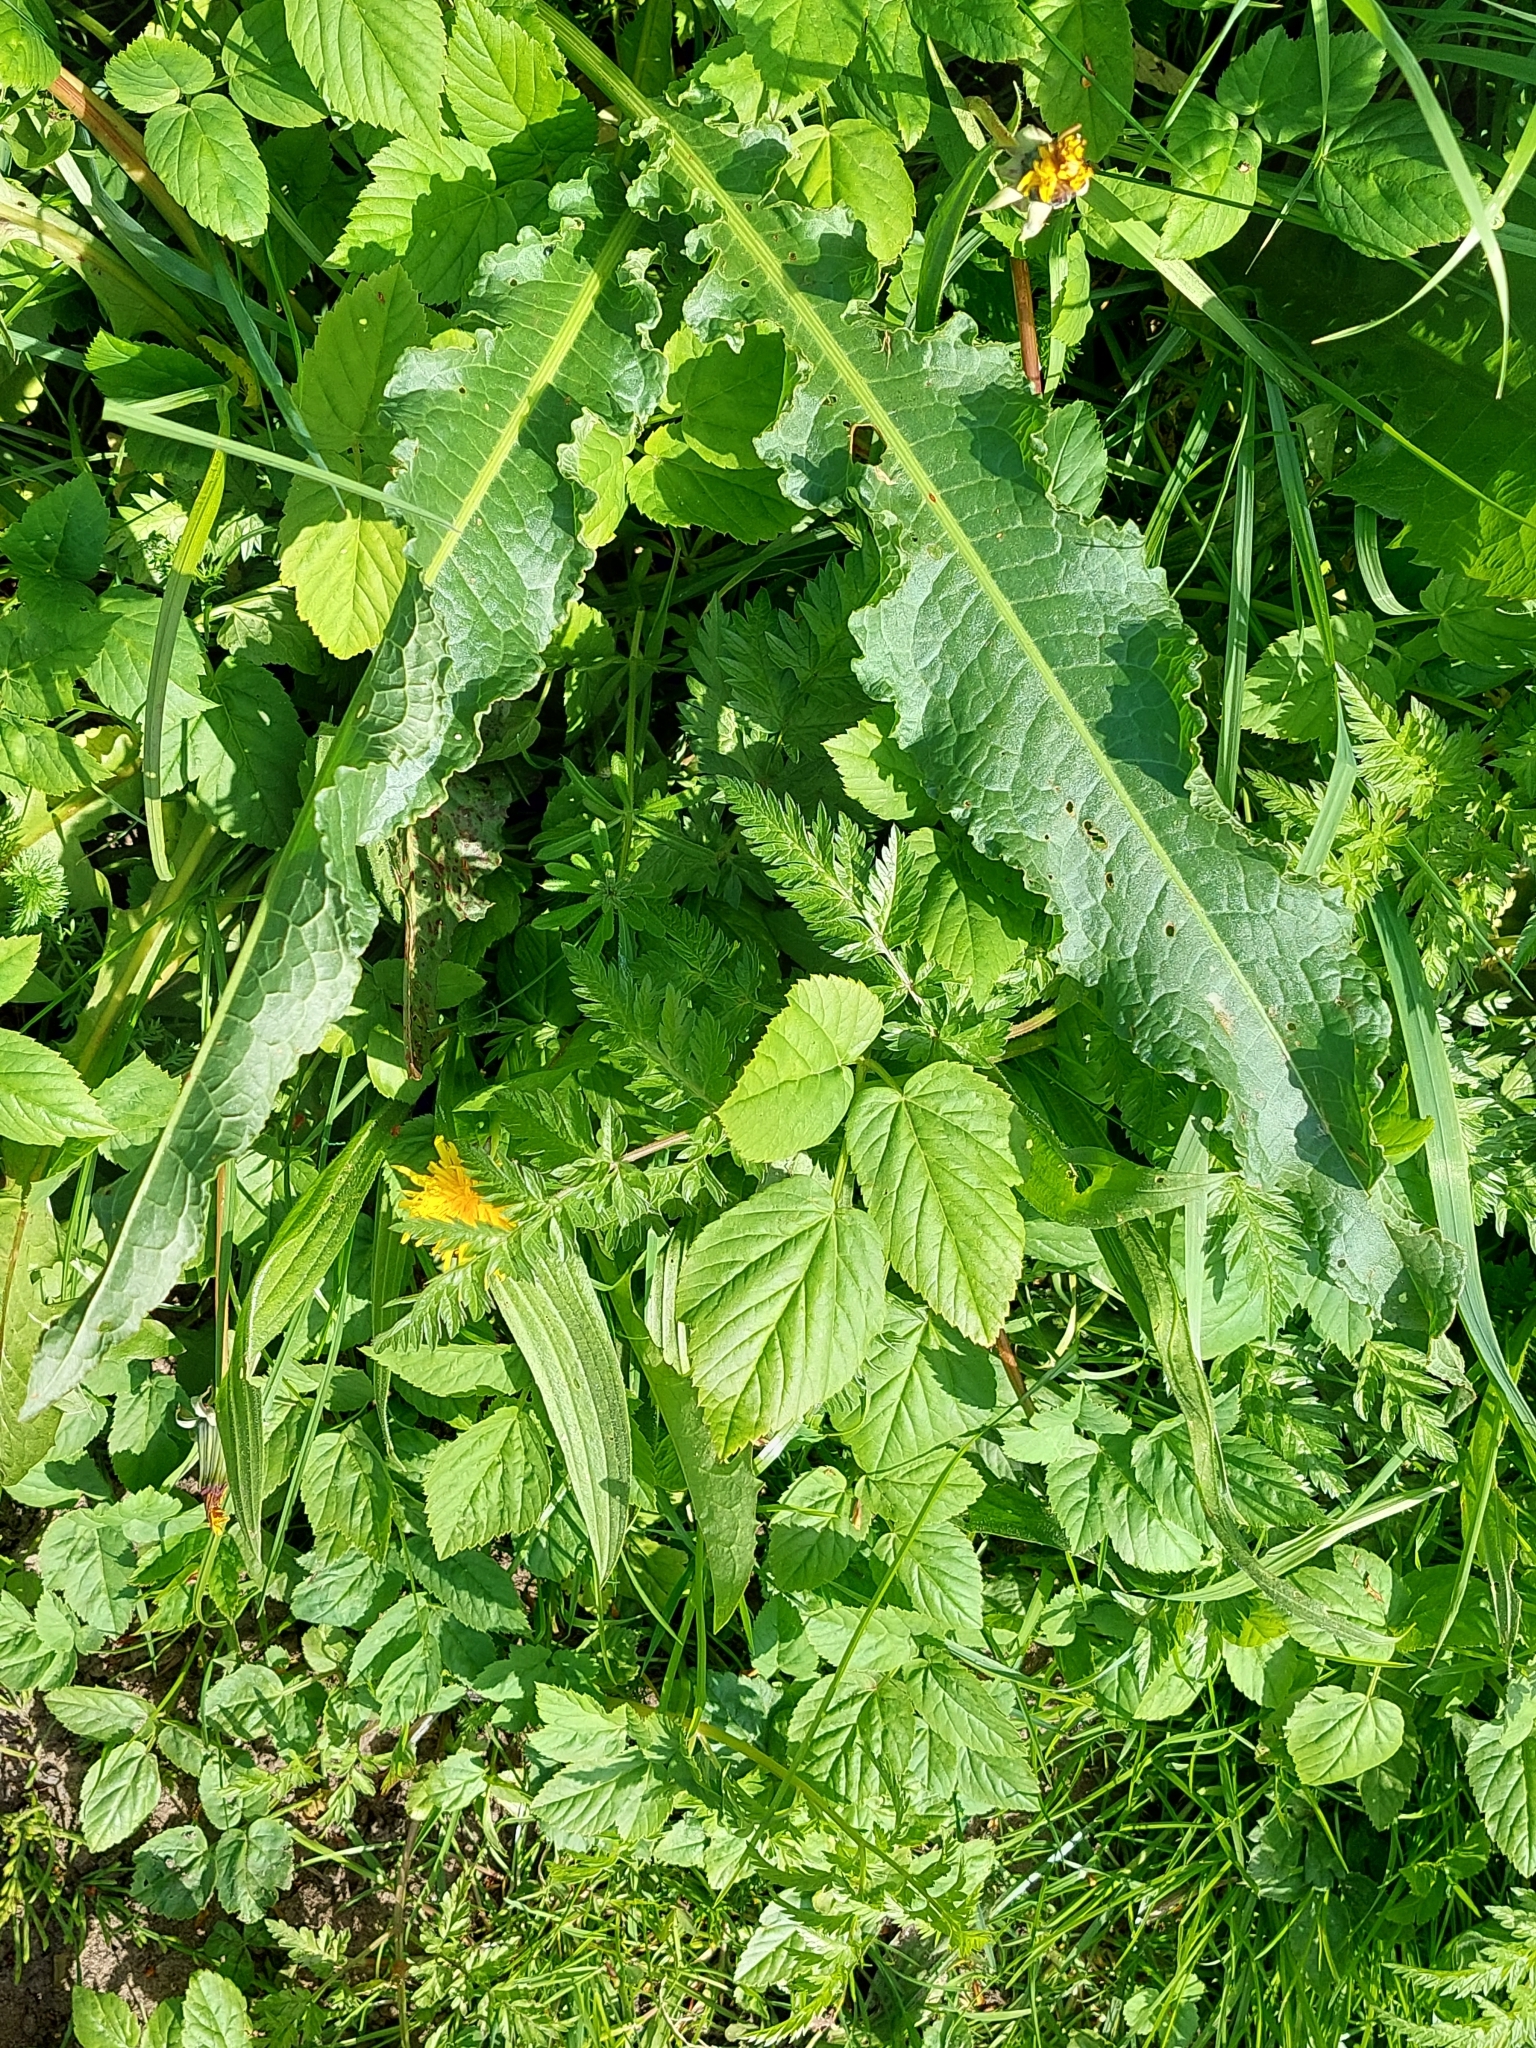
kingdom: Plantae
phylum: Tracheophyta
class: Magnoliopsida
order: Caryophyllales
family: Polygonaceae
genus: Rumex
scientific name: Rumex crispus
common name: Curled dock
